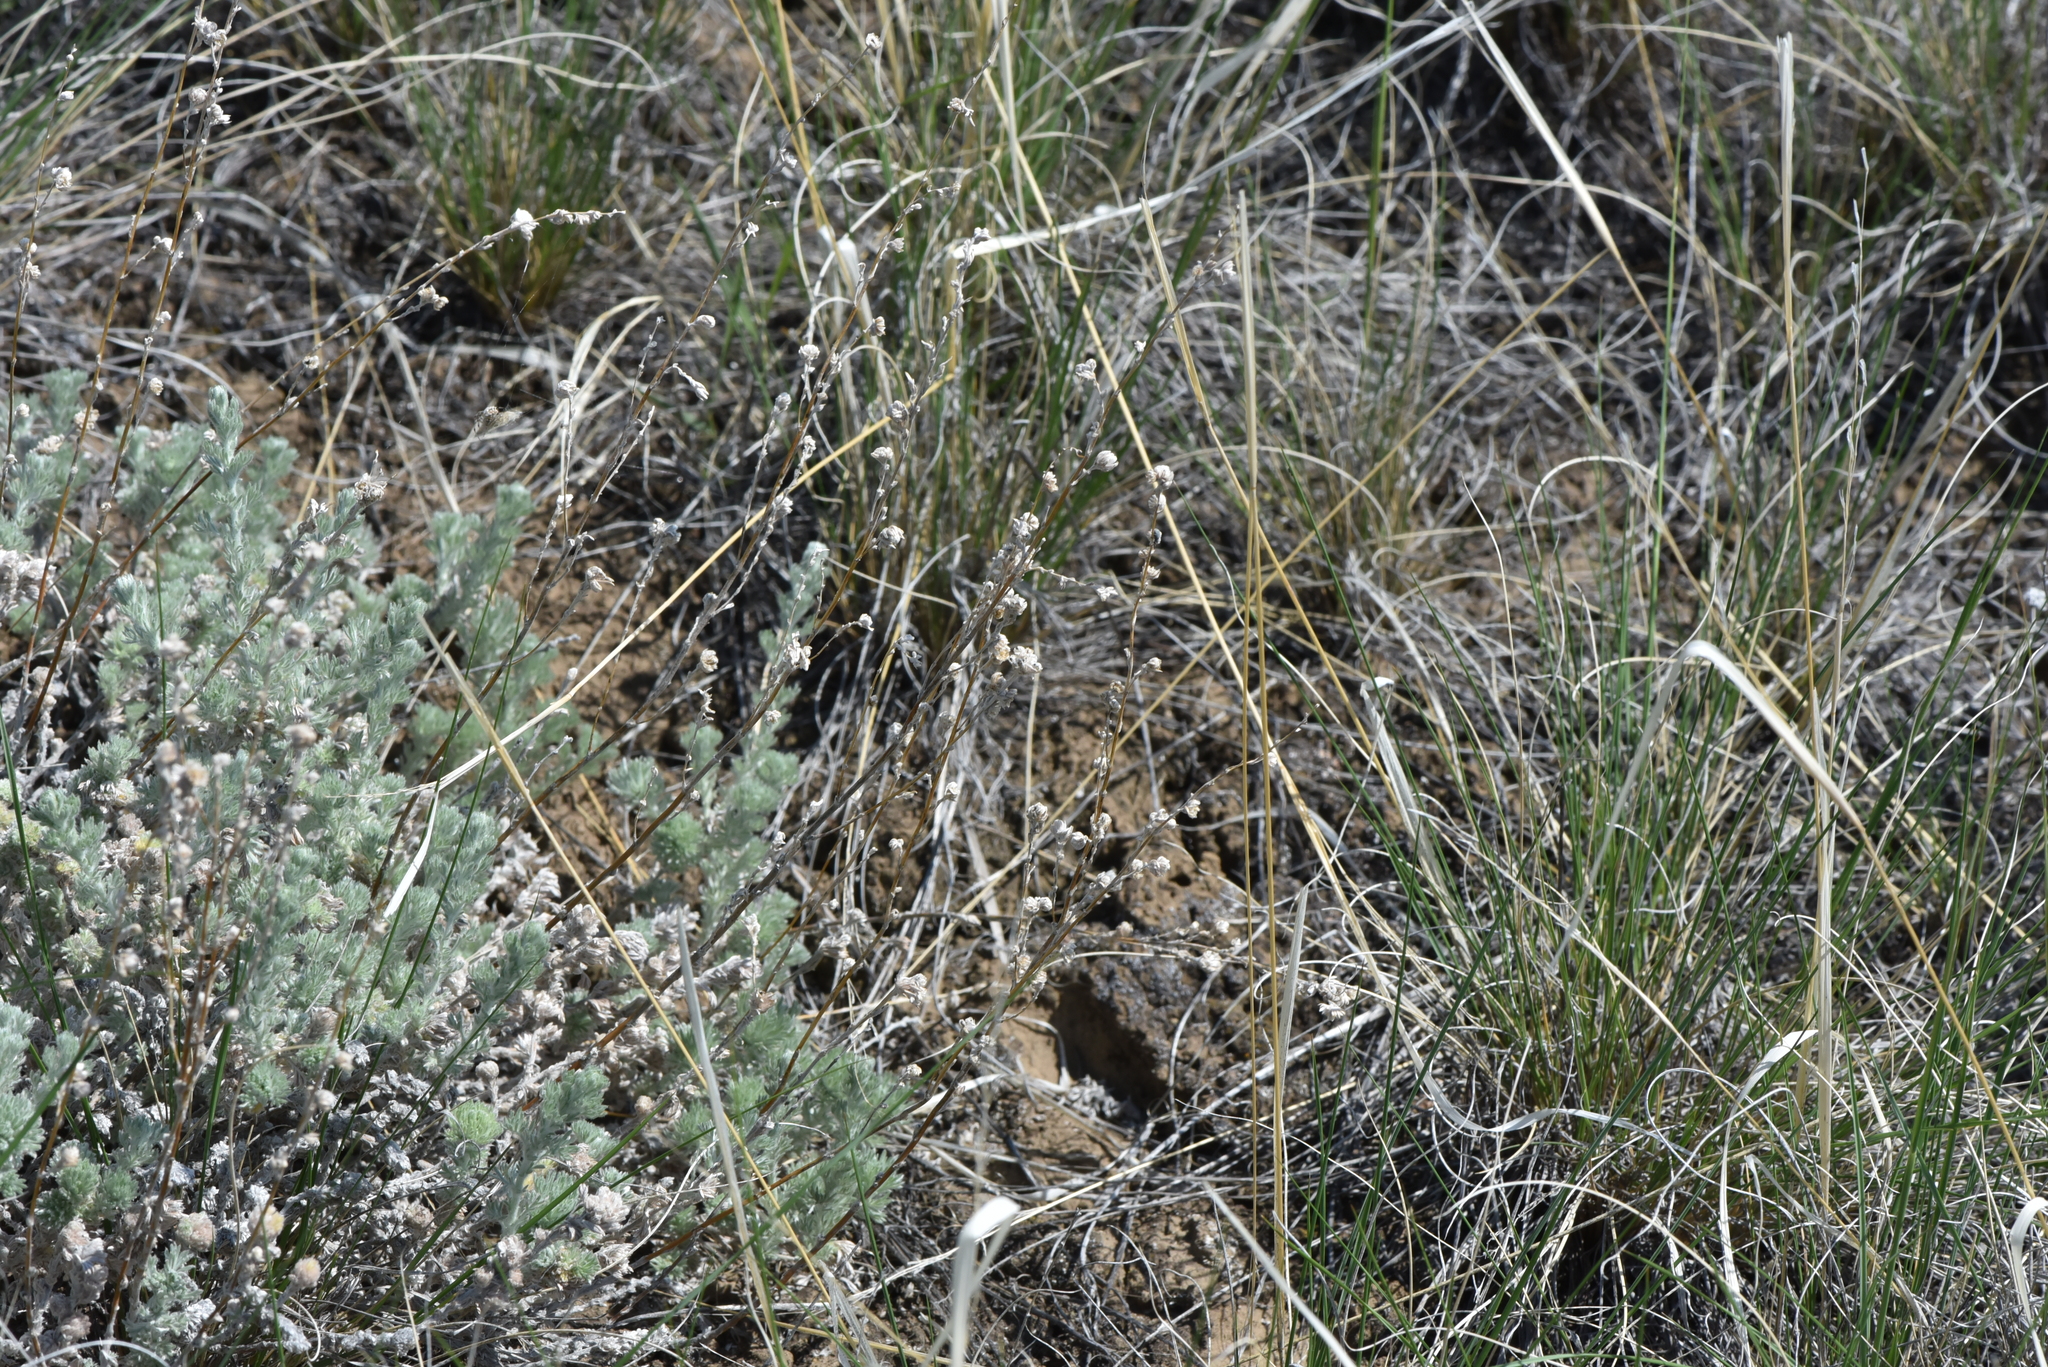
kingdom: Plantae
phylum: Tracheophyta
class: Magnoliopsida
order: Asterales
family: Asteraceae
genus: Artemisia
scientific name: Artemisia frigida
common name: Prairie sagewort
